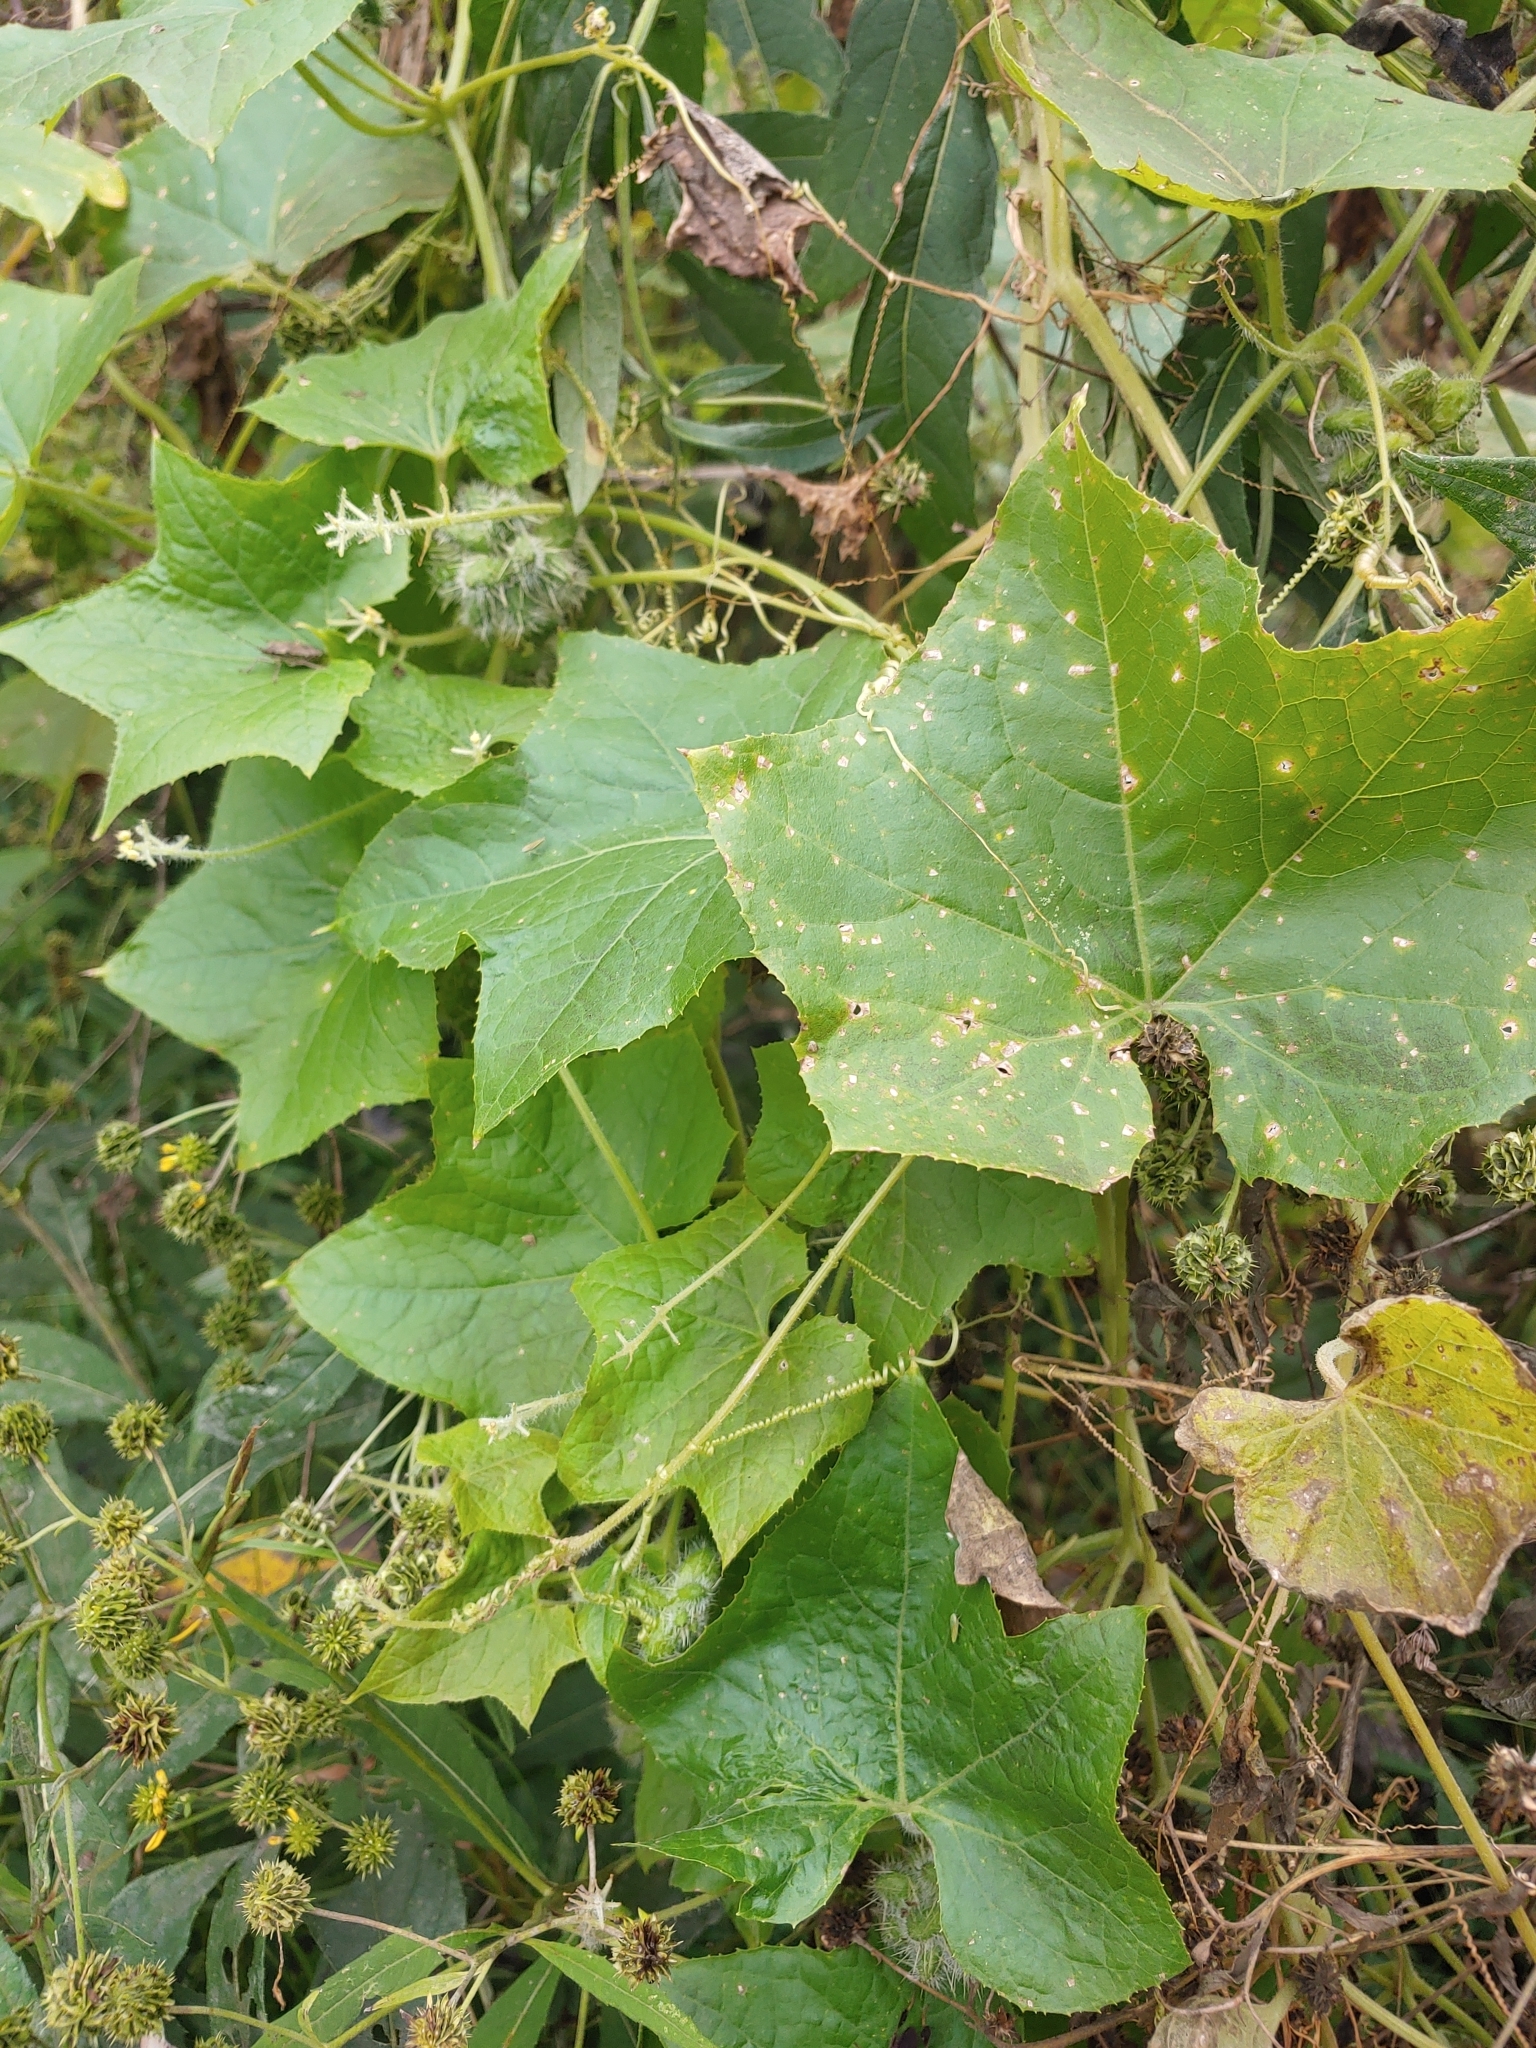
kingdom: Plantae
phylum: Tracheophyta
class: Magnoliopsida
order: Cucurbitales
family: Cucurbitaceae
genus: Sicyos
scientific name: Sicyos angulatus
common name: Angled burr cucumber
